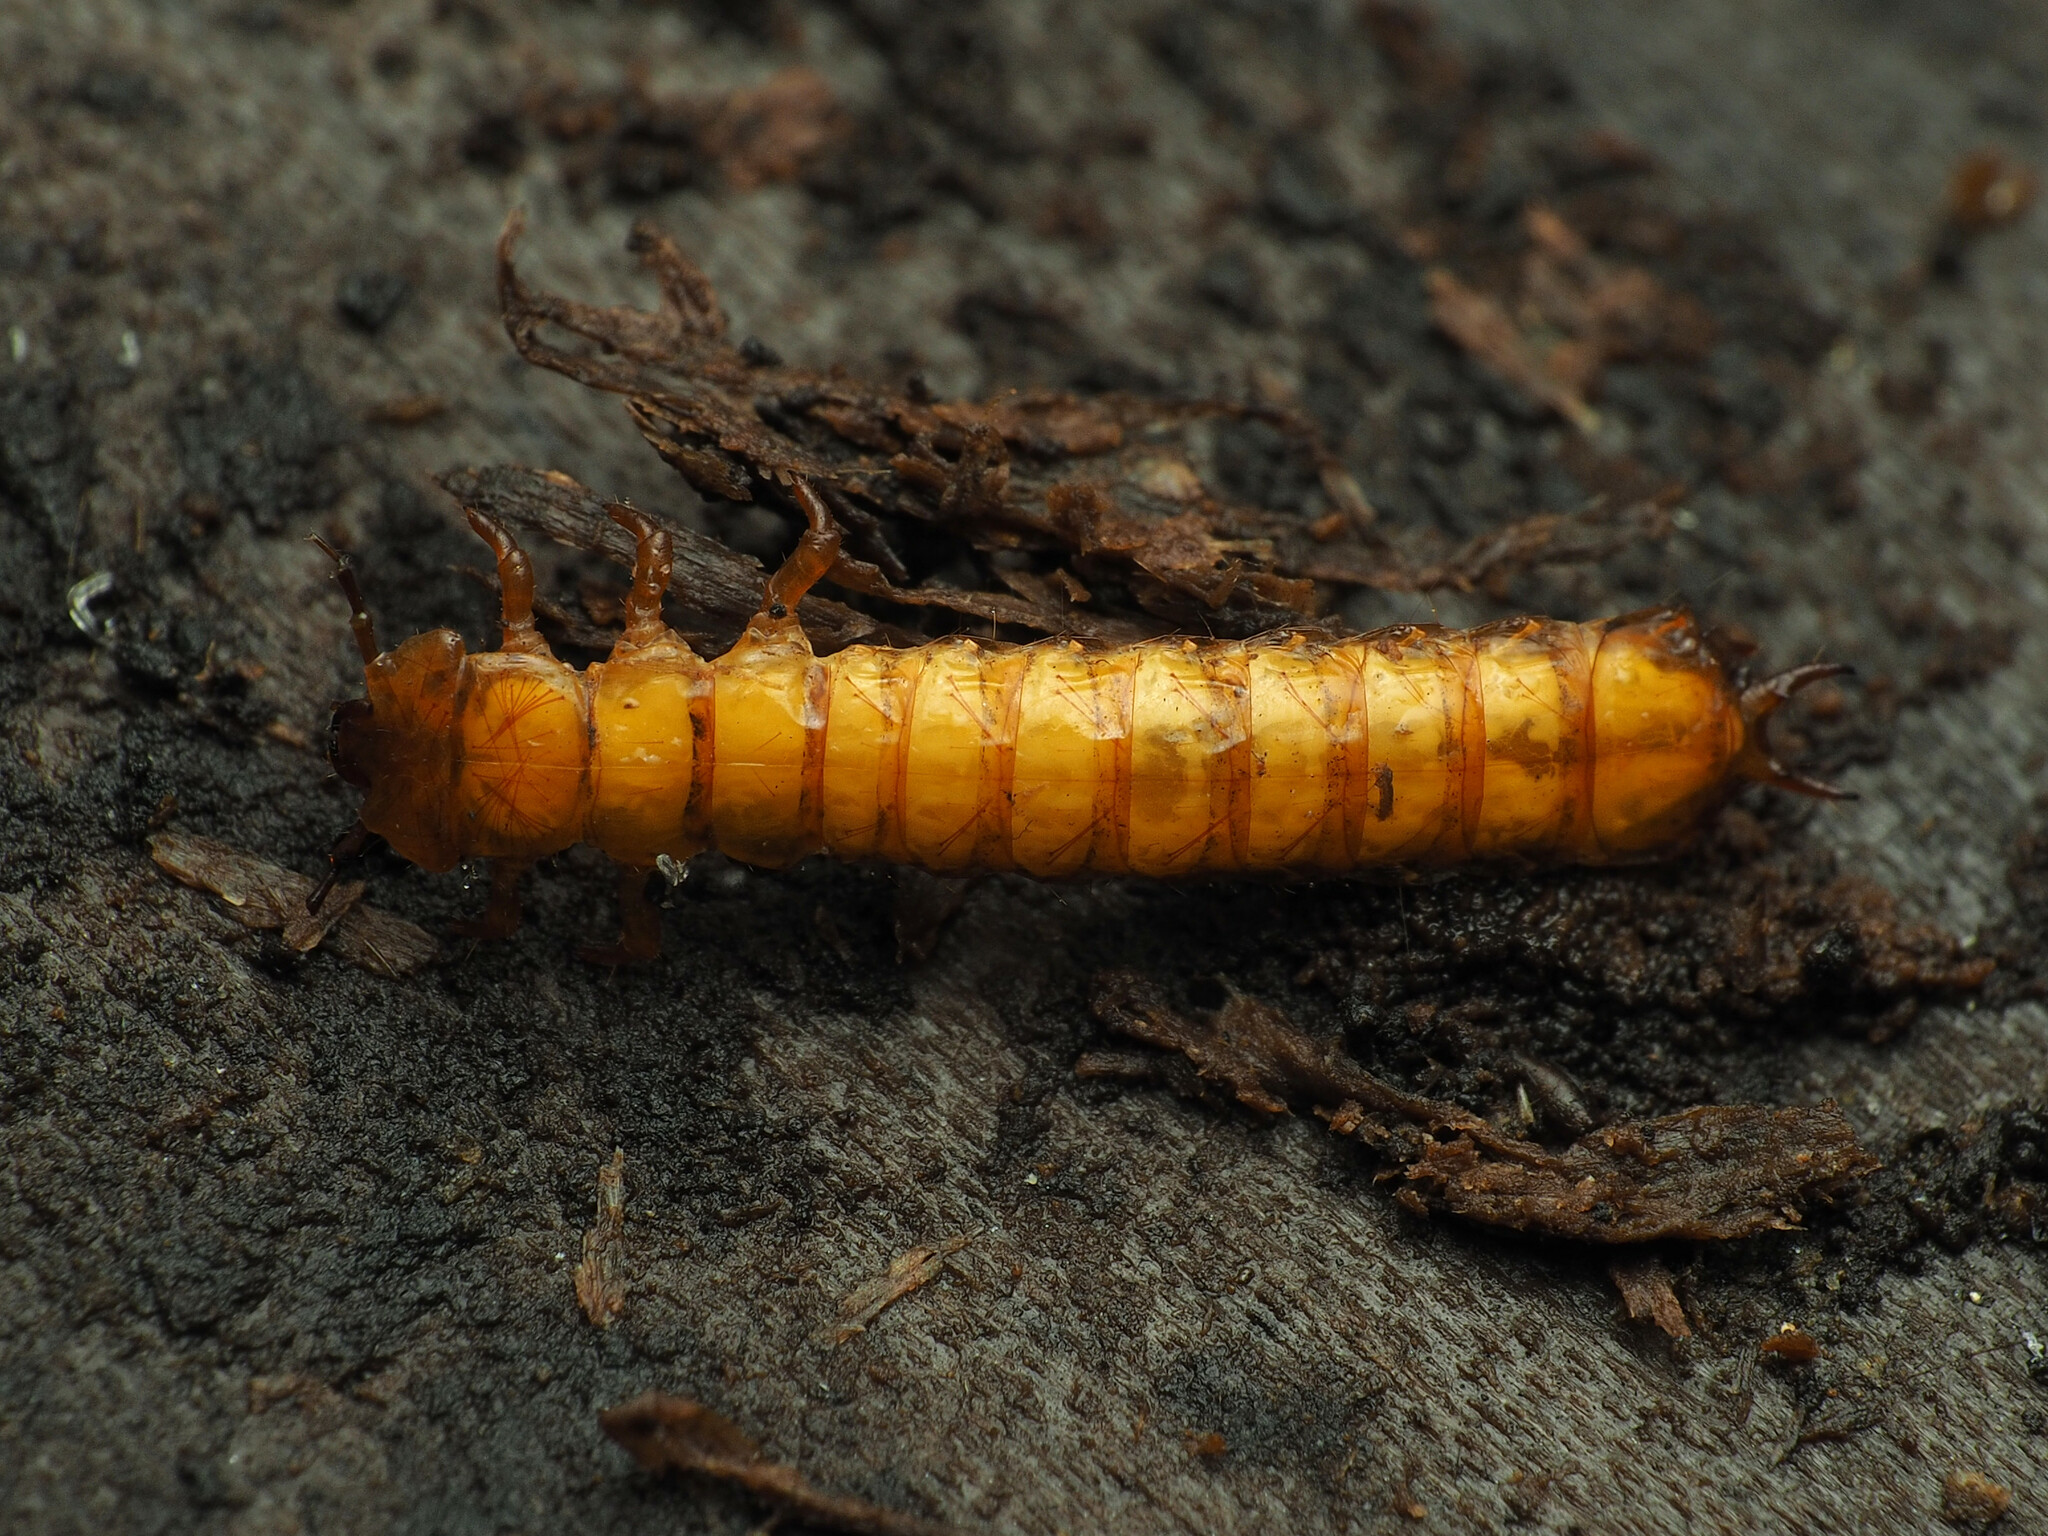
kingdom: Animalia
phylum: Arthropoda
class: Insecta
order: Coleoptera
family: Cucujidae
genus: Cucujus
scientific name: Cucujus clavipes
